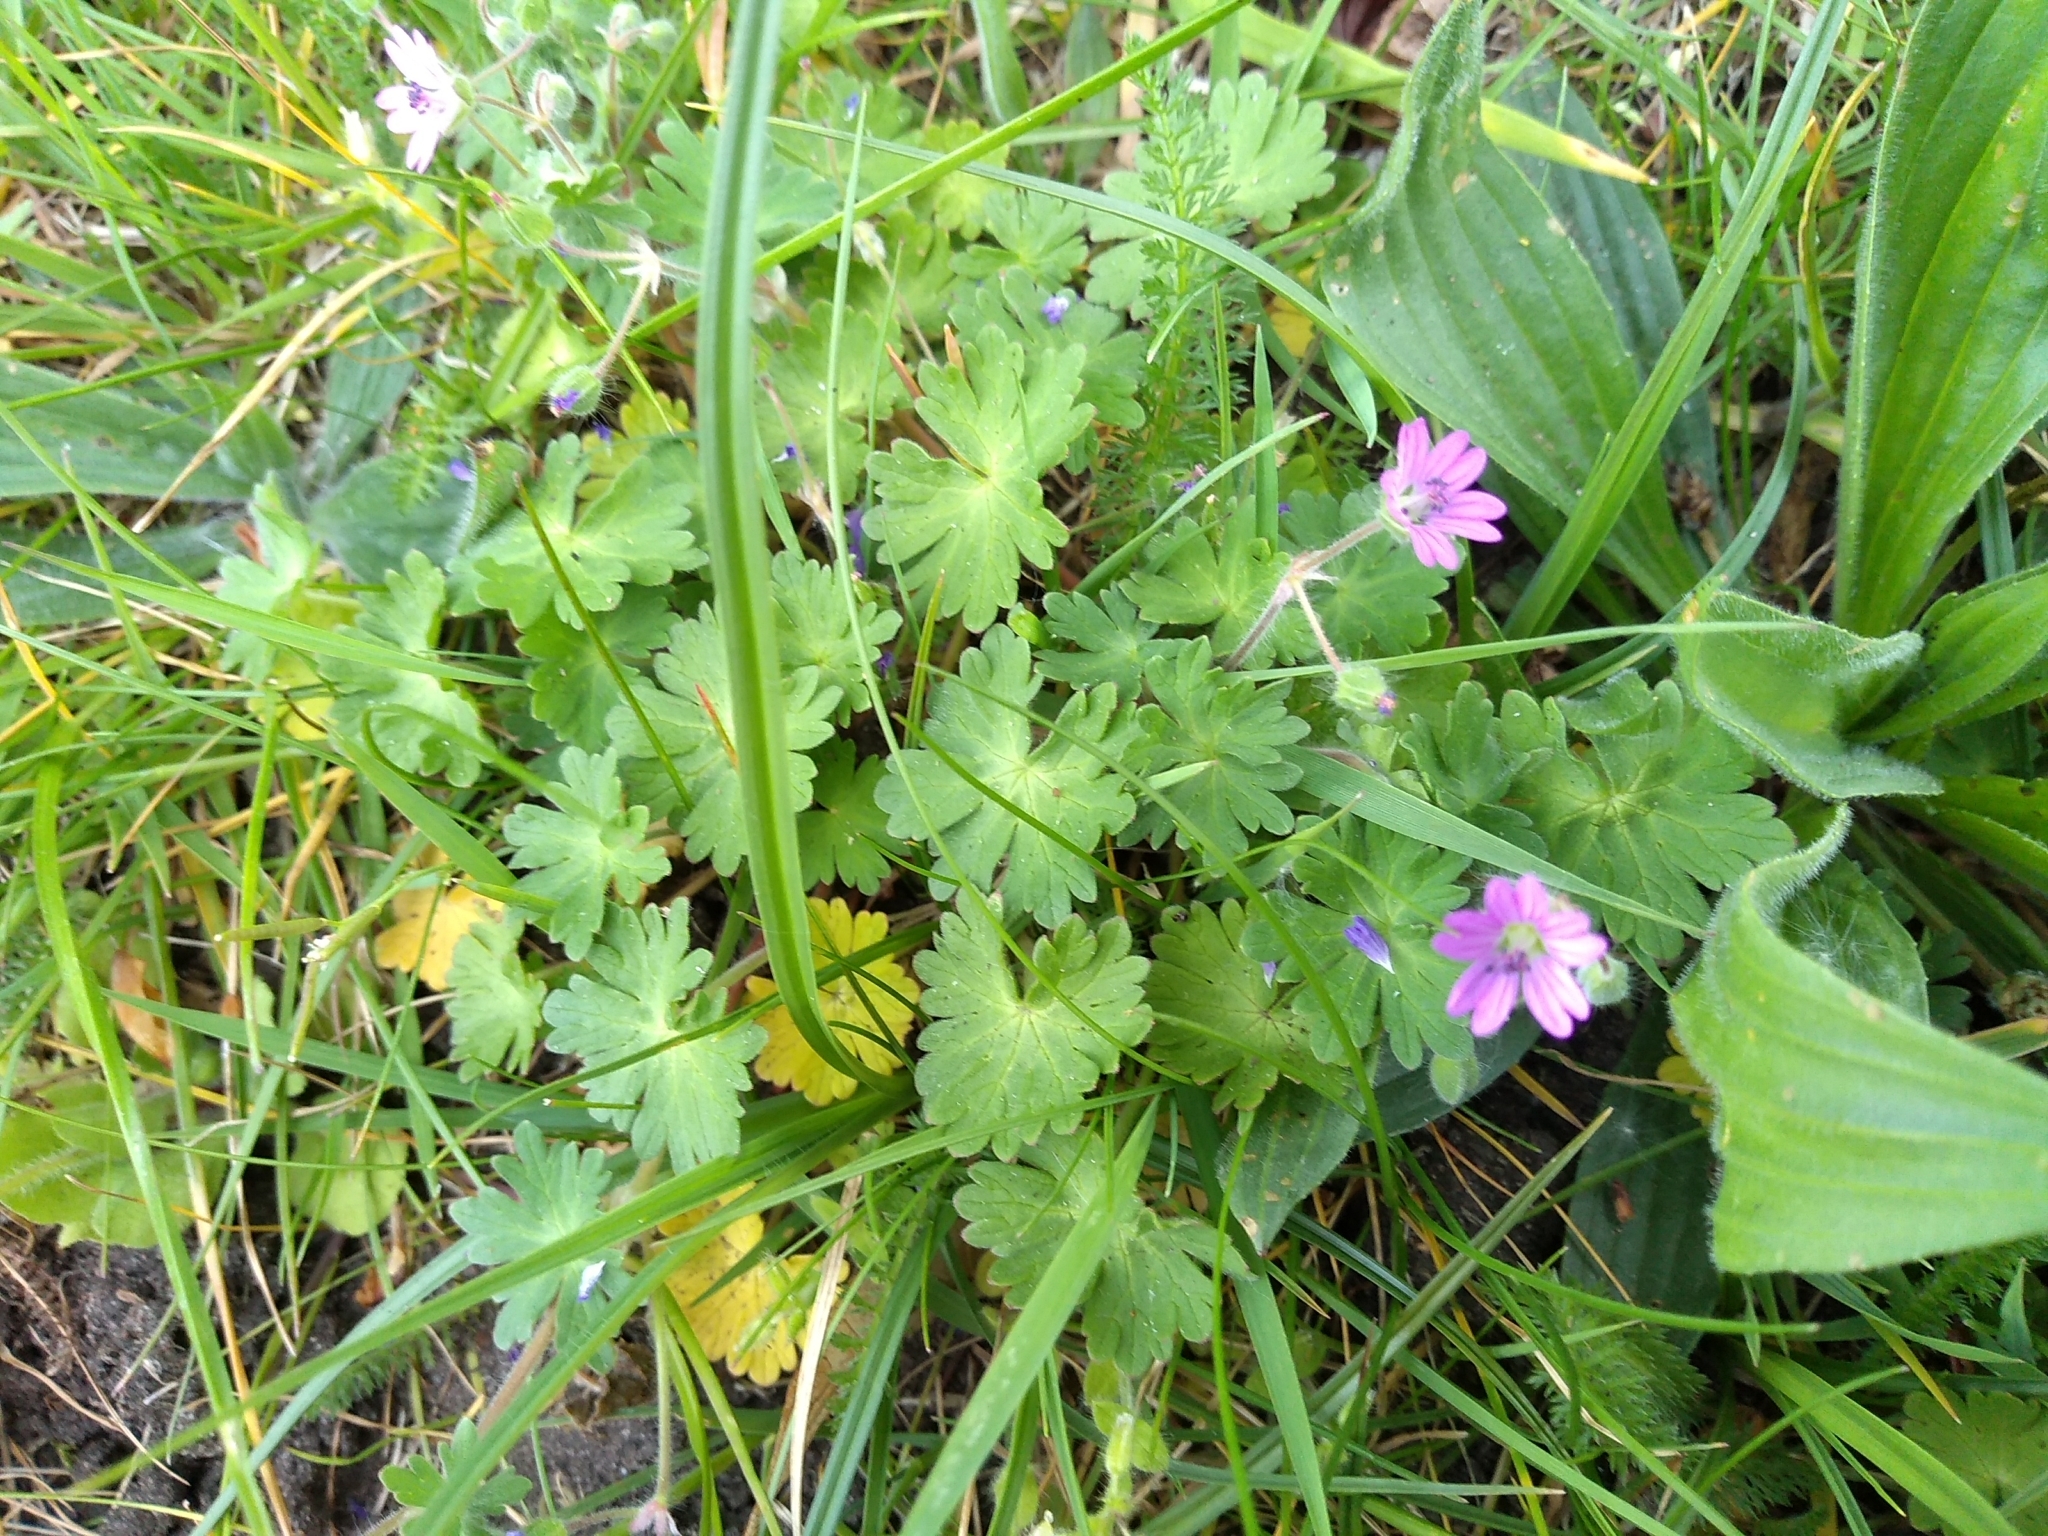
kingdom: Plantae
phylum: Tracheophyta
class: Magnoliopsida
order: Geraniales
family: Geraniaceae
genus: Geranium
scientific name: Geranium molle
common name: Dove's-foot crane's-bill
